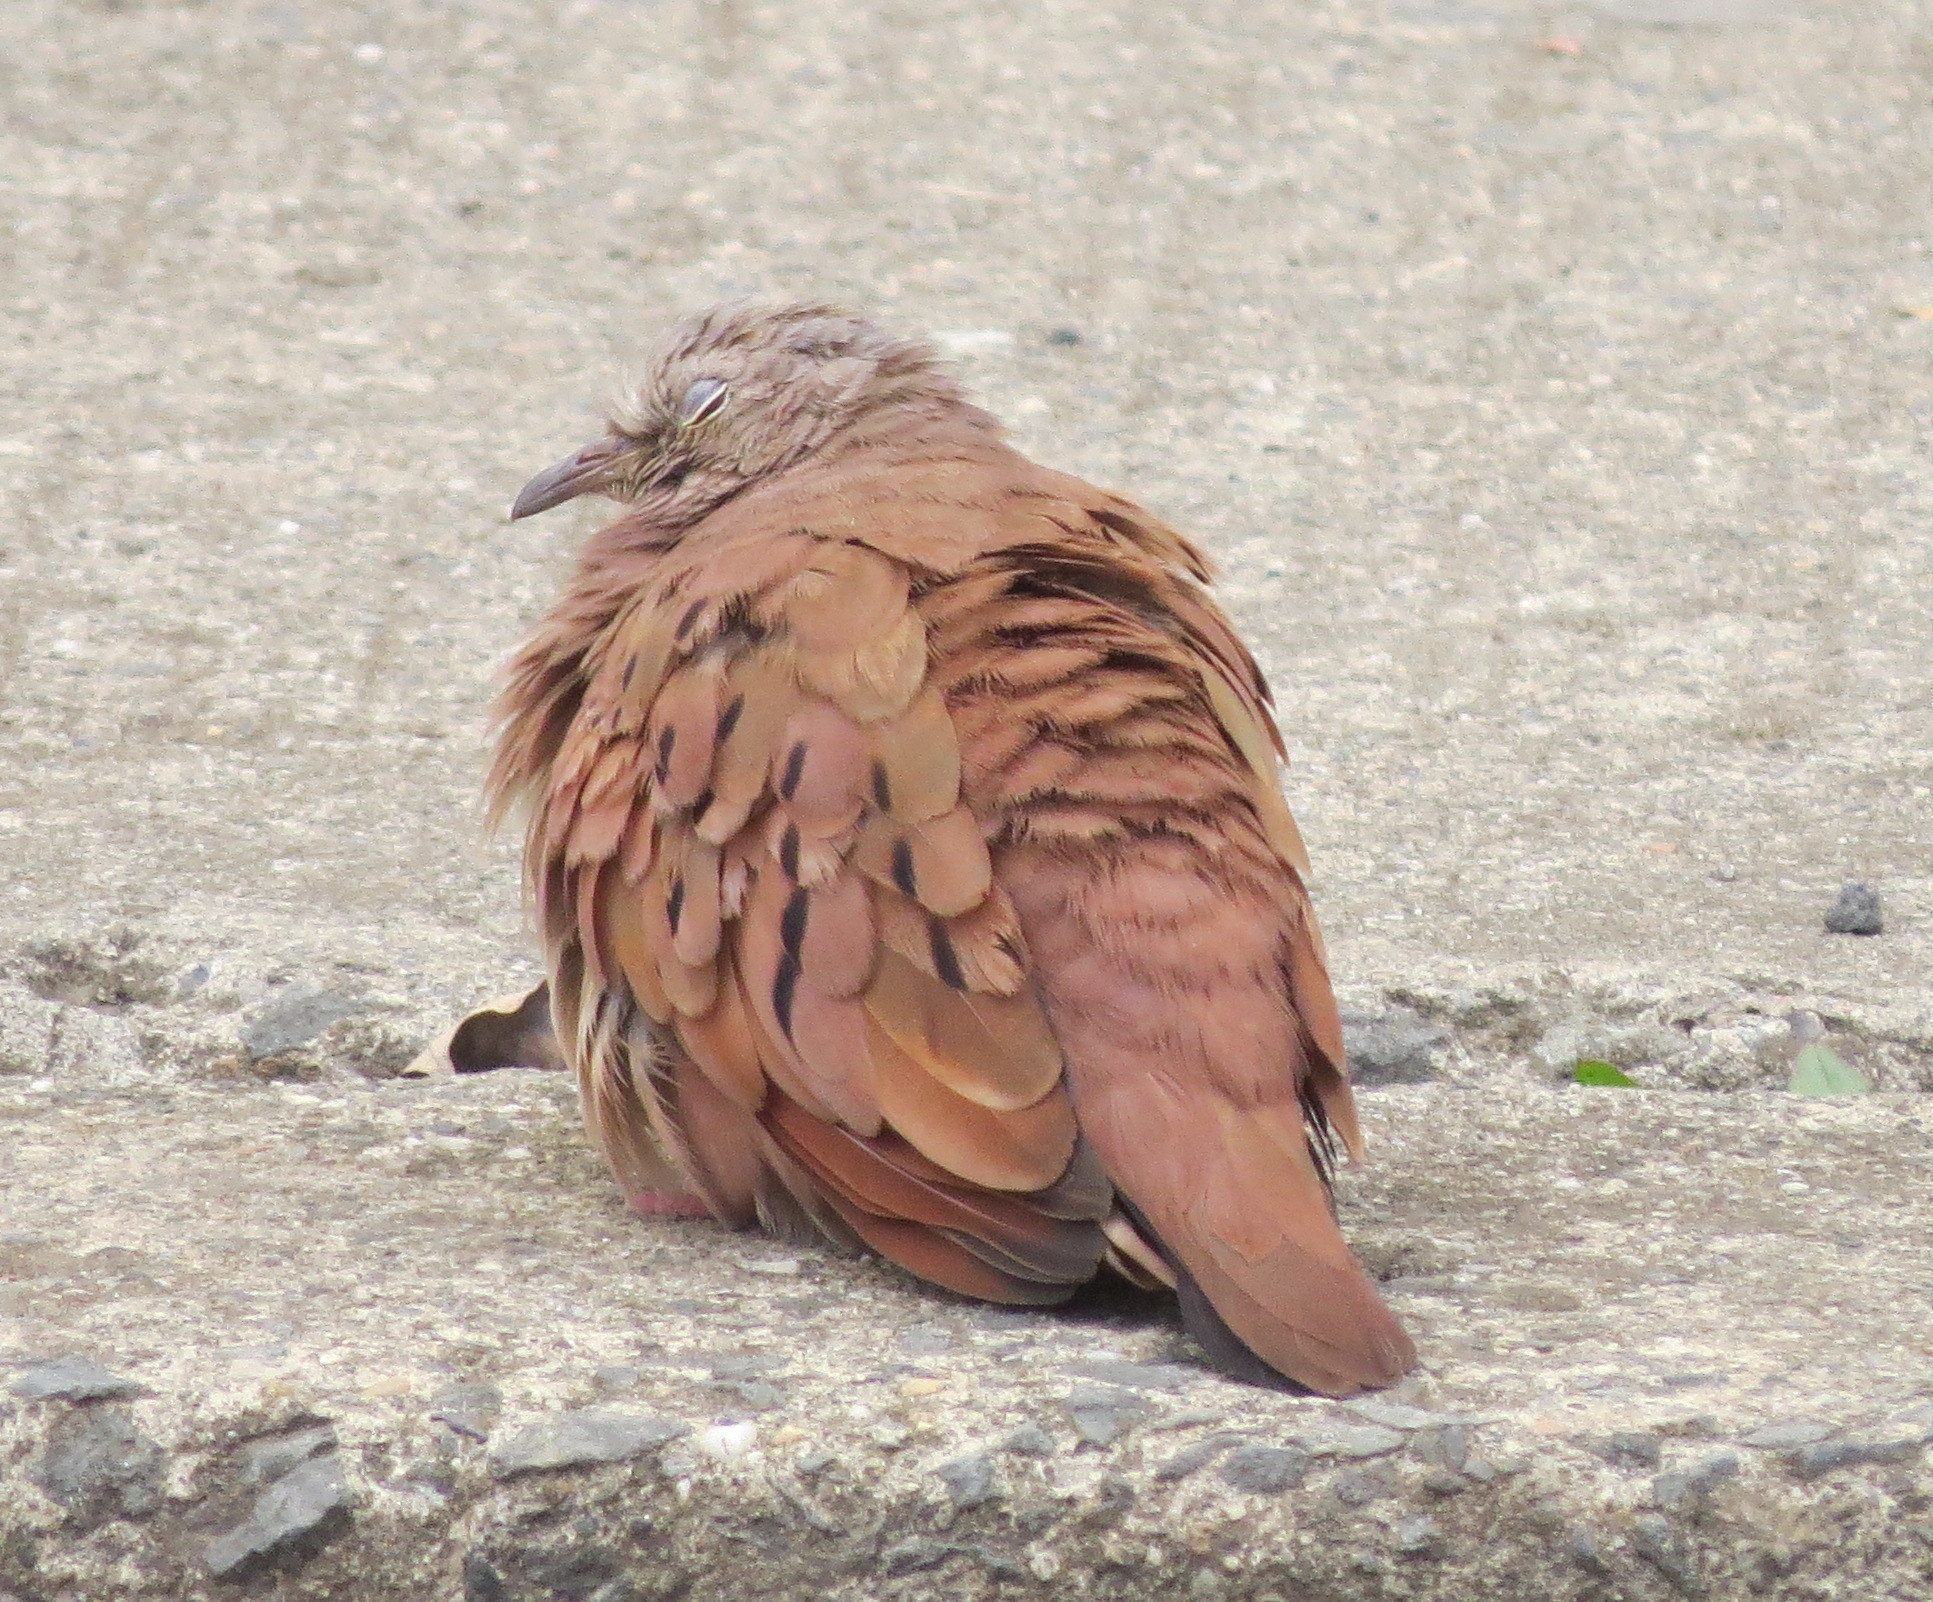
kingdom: Animalia
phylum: Chordata
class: Aves
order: Columbiformes
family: Columbidae
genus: Columbina
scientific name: Columbina talpacoti
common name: Ruddy ground dove
